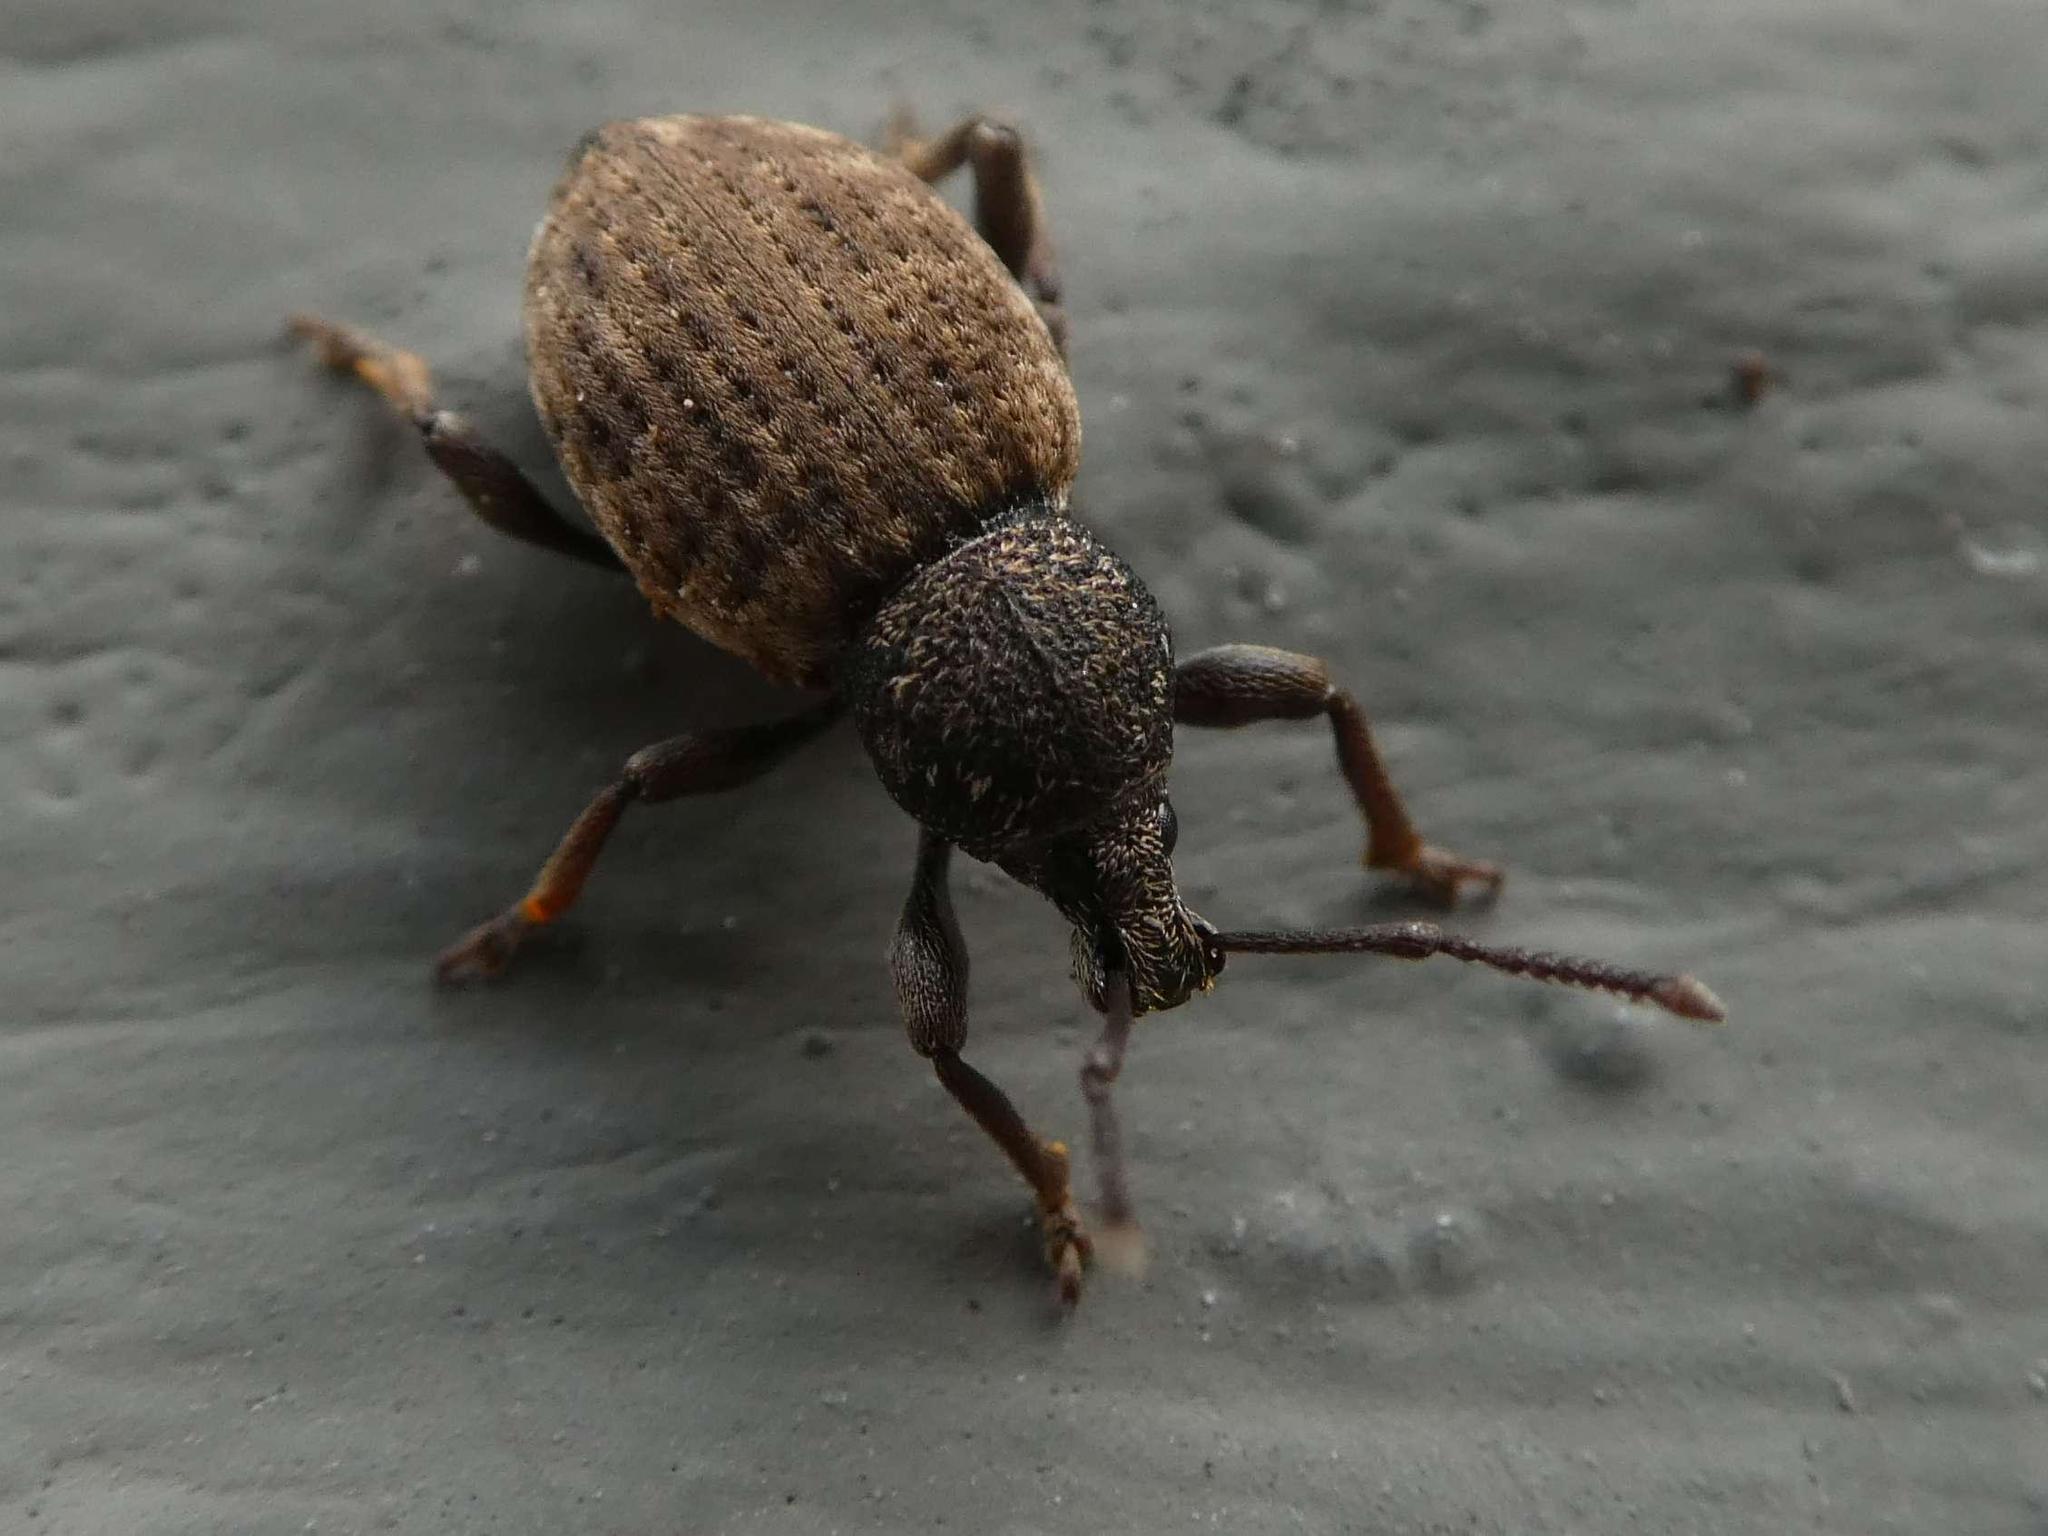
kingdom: Animalia
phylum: Arthropoda
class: Insecta
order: Coleoptera
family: Curculionidae
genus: Otiorhynchus
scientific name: Otiorhynchus raucus
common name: Weevil
